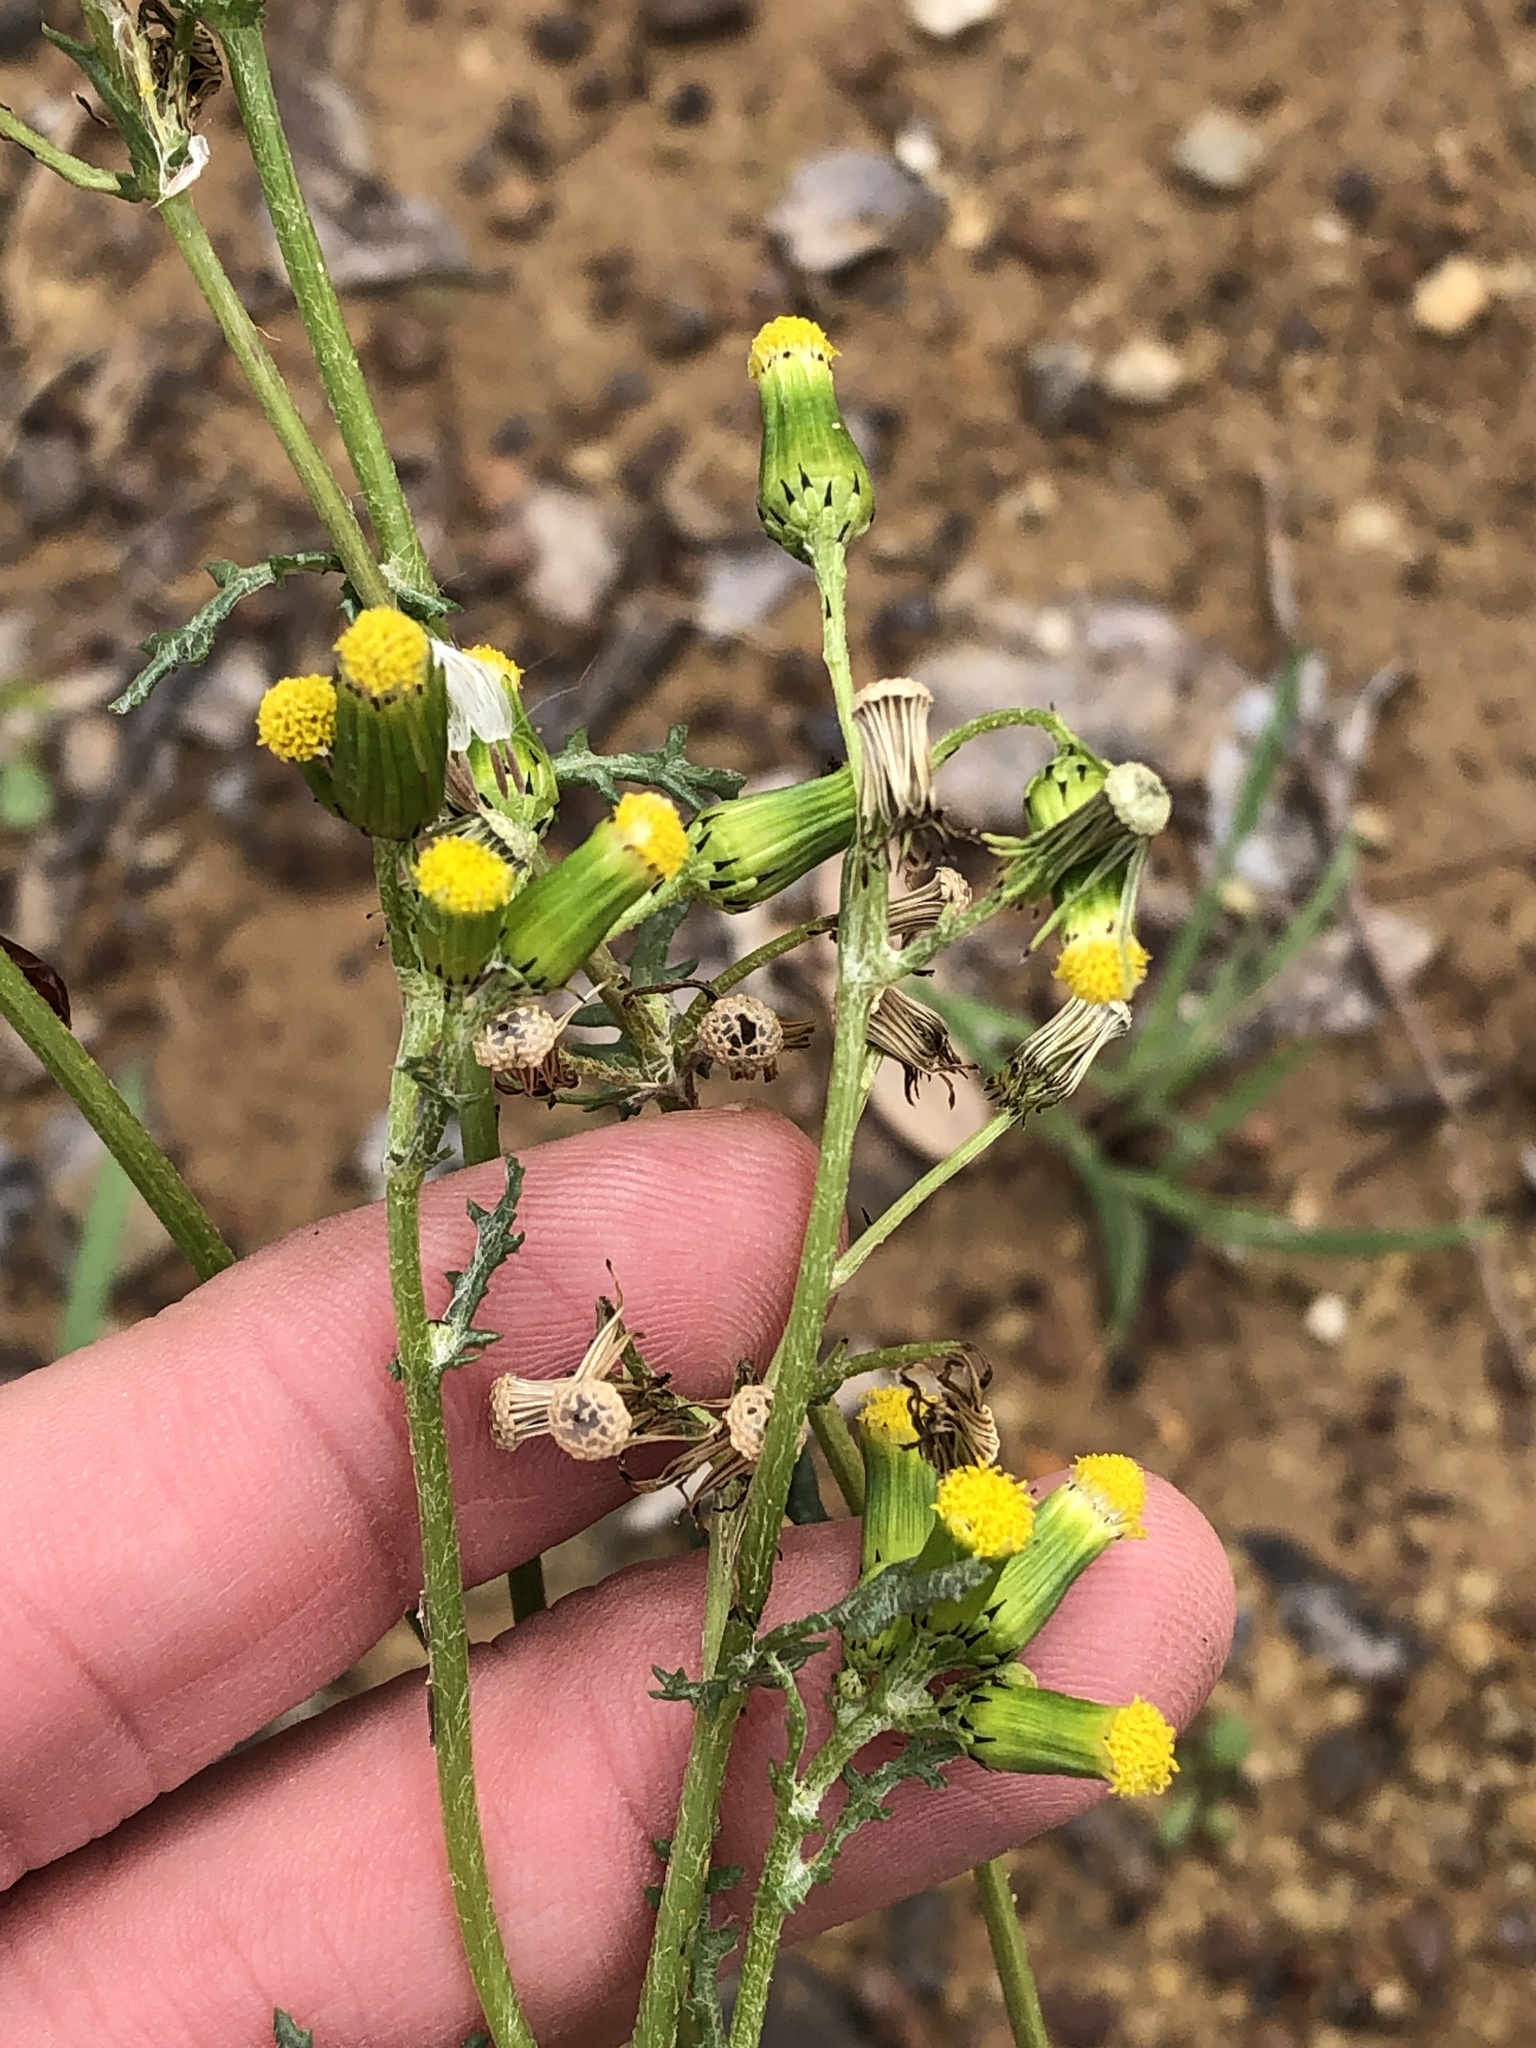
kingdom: Plantae
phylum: Tracheophyta
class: Magnoliopsida
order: Asterales
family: Asteraceae
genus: Senecio
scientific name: Senecio vulgaris
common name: Old-man-in-the-spring
